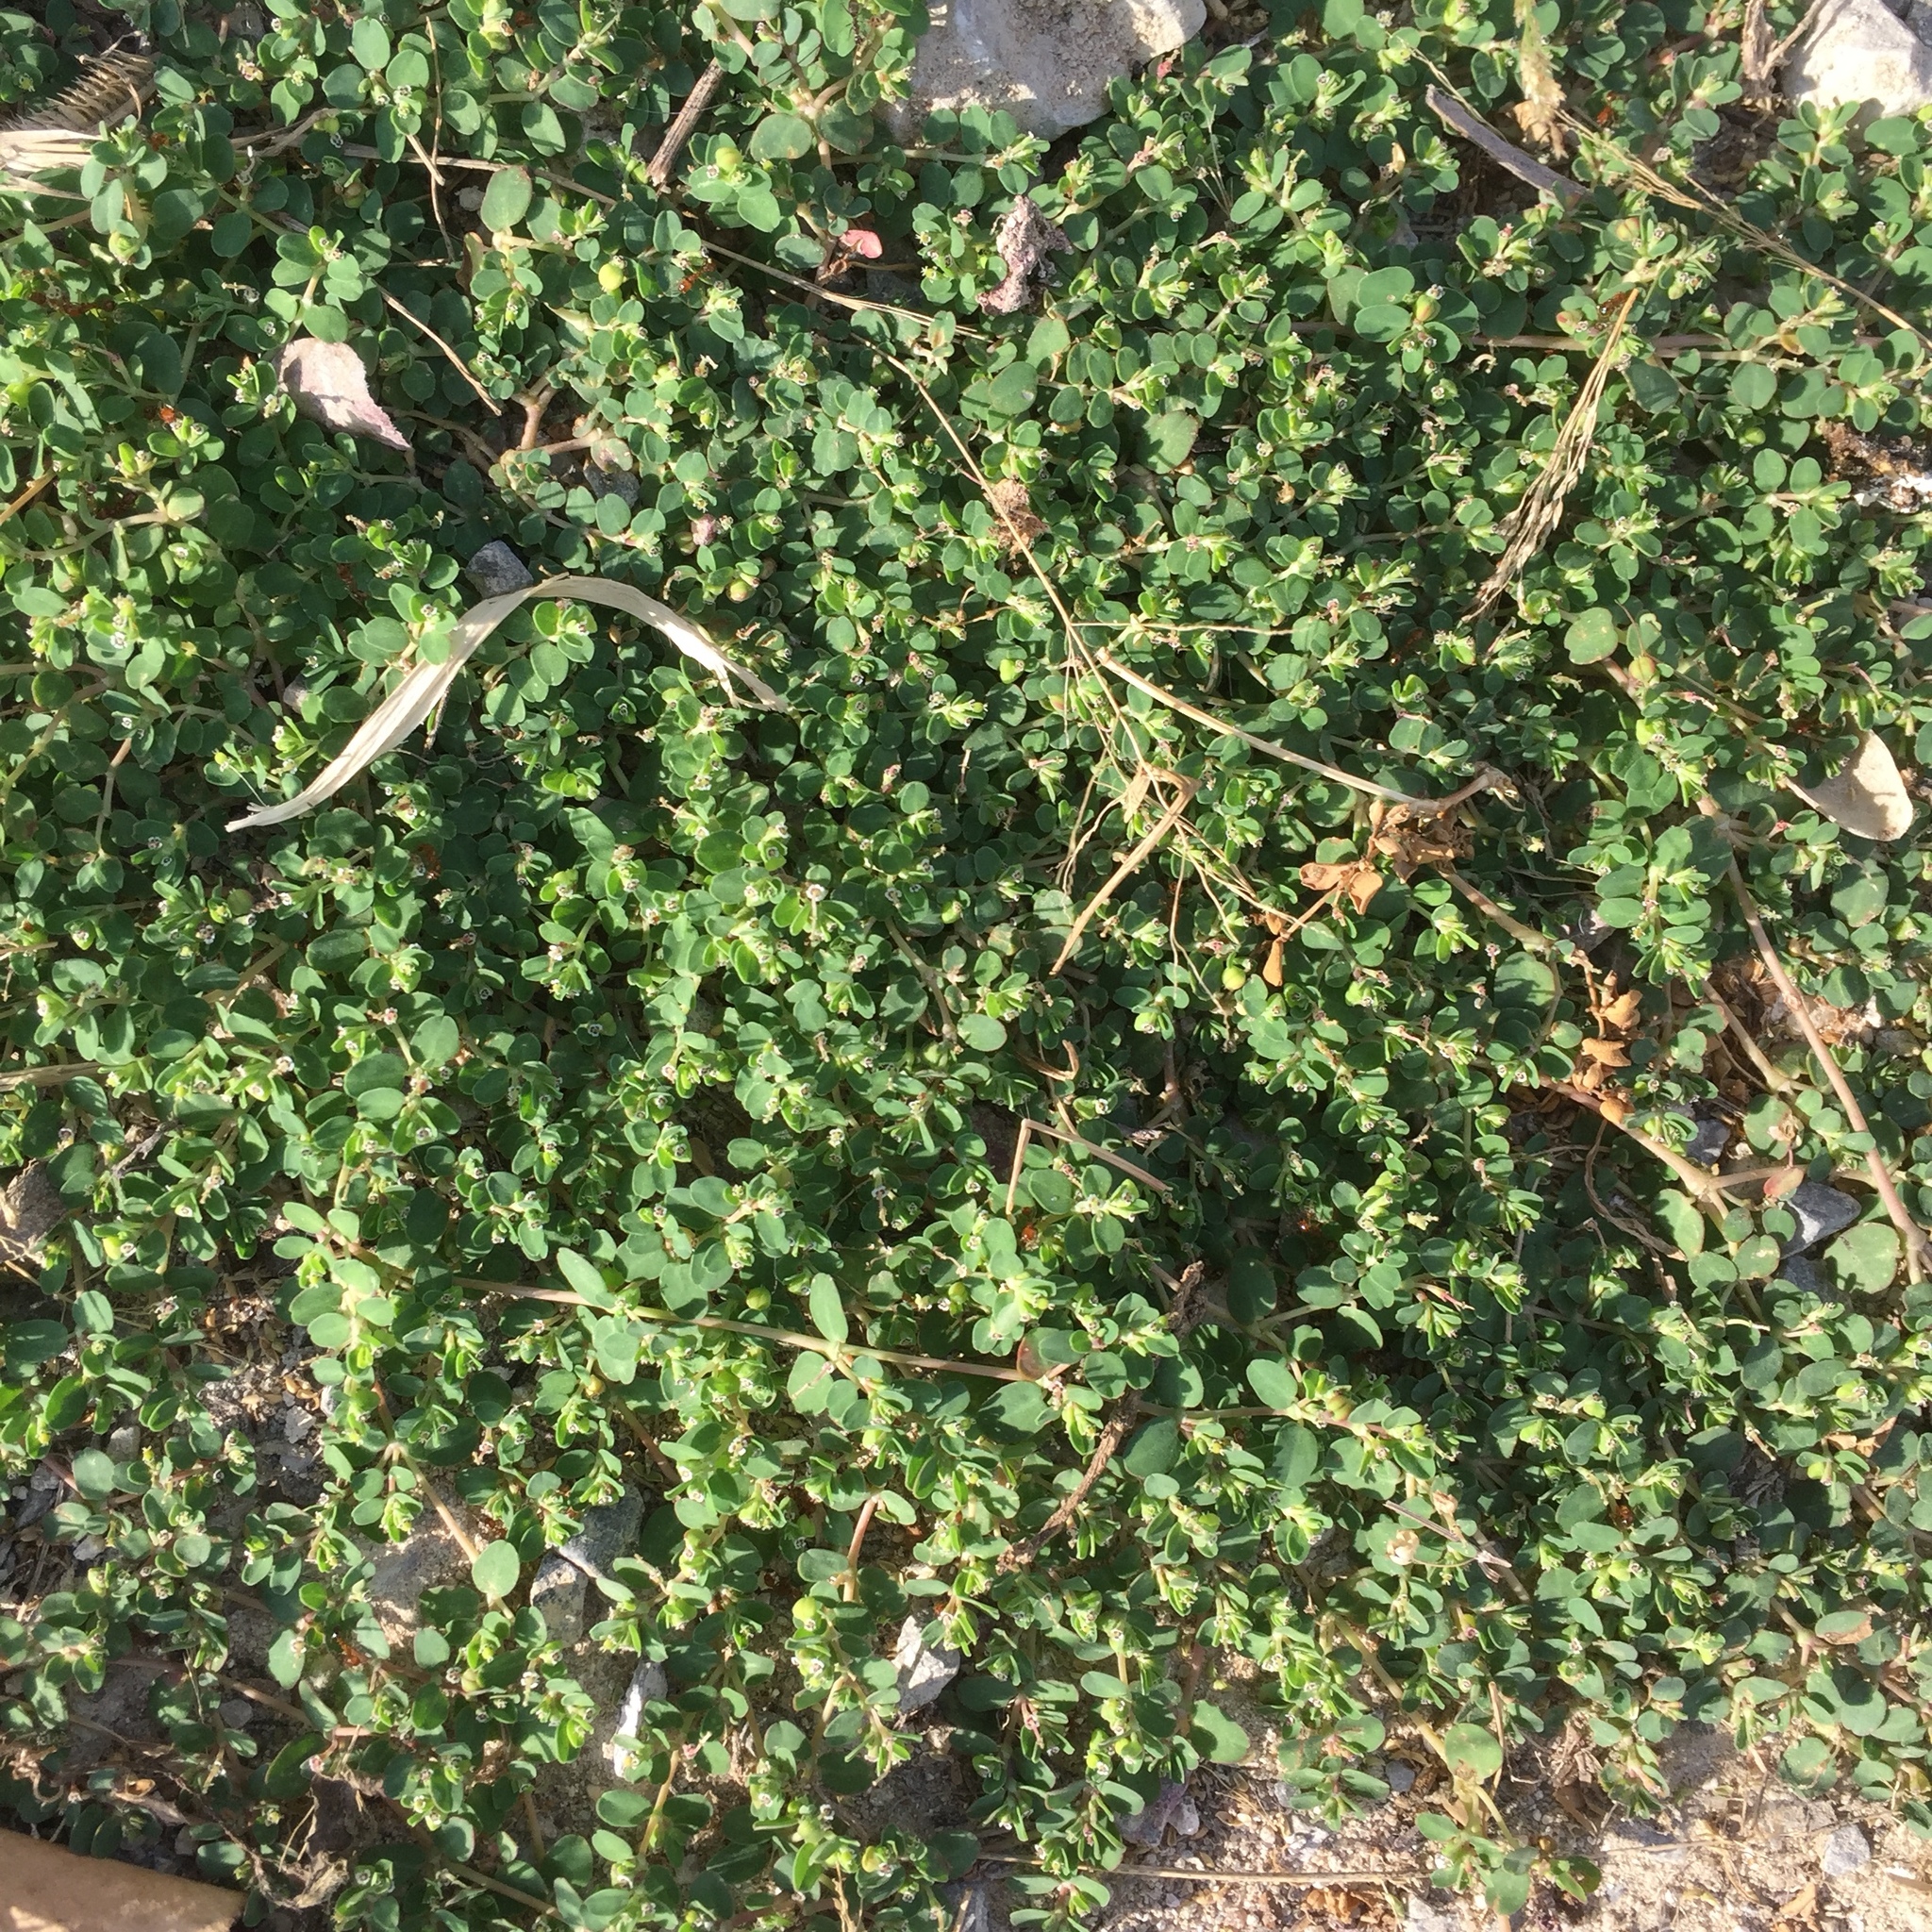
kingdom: Plantae
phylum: Tracheophyta
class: Magnoliopsida
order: Malpighiales
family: Euphorbiaceae
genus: Euphorbia
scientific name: Euphorbia serpens
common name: Matted sandmat
